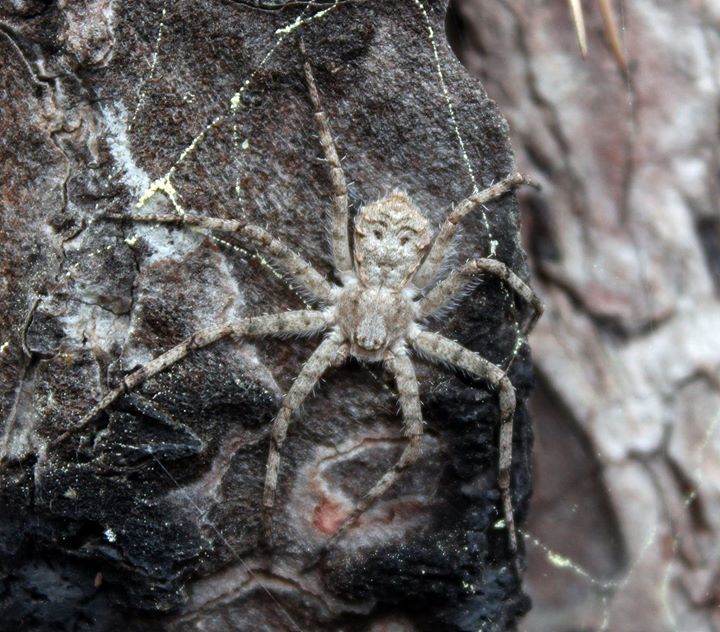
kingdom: Animalia
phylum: Arthropoda
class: Arachnida
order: Araneae
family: Philodromidae
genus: Philodromus
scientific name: Philodromus margaritatus
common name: Lichen running-spider
